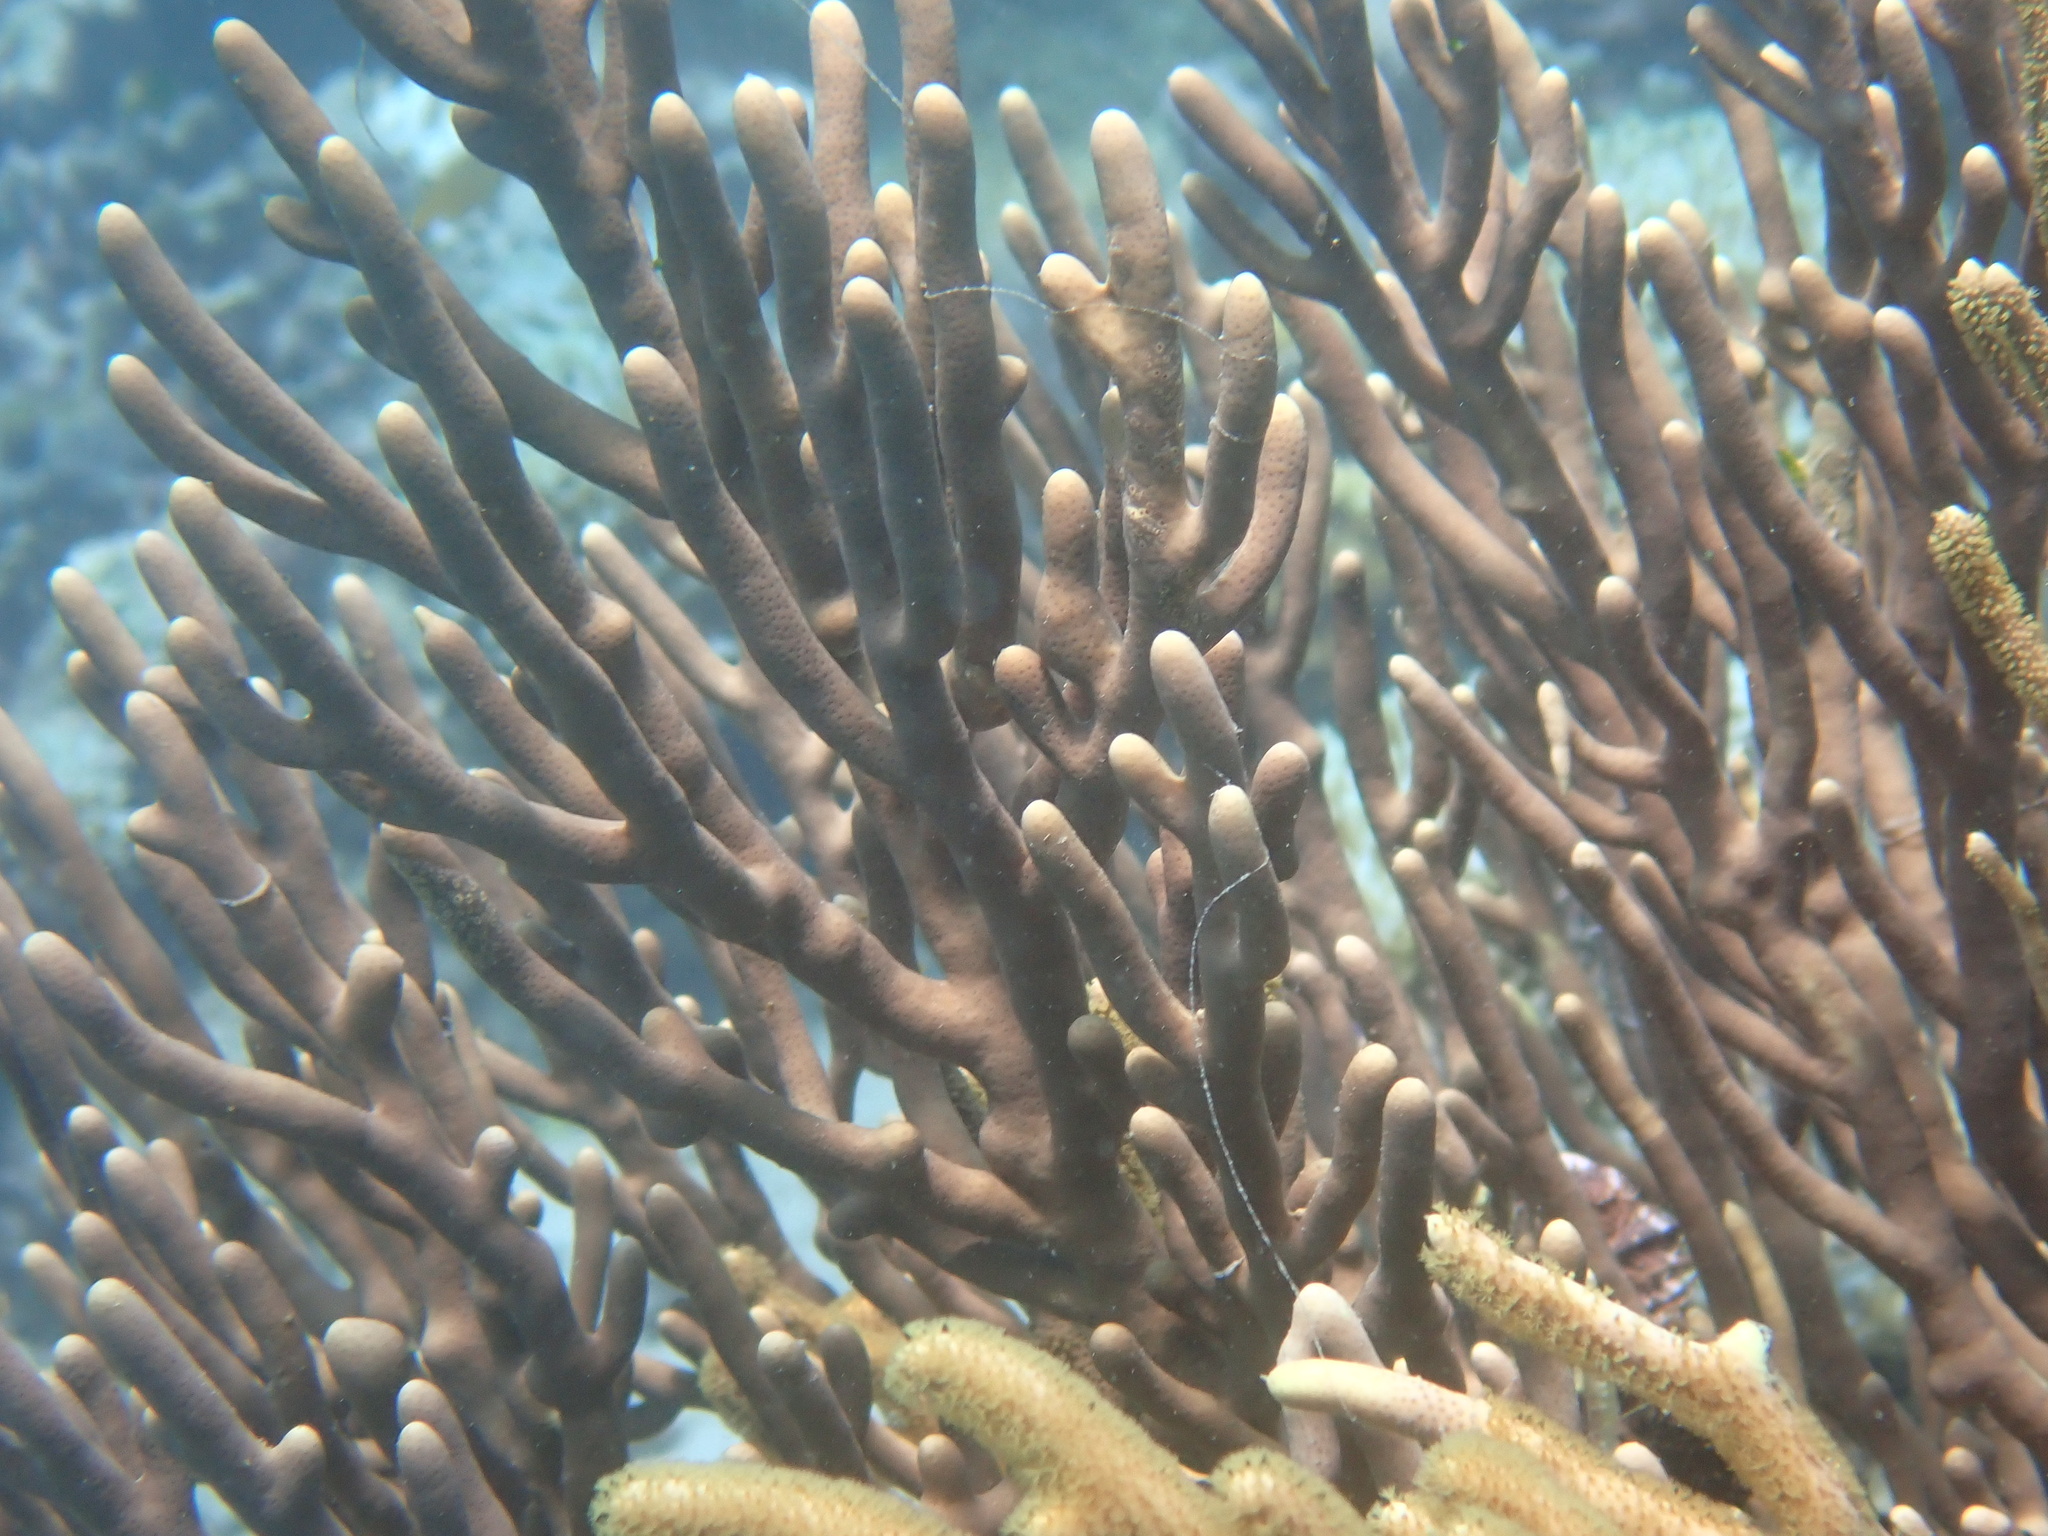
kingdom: Animalia
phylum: Cnidaria
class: Anthozoa
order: Malacalcyonacea
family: Isididae
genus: Isis
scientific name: Isis hippuris
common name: Golden sea fan
